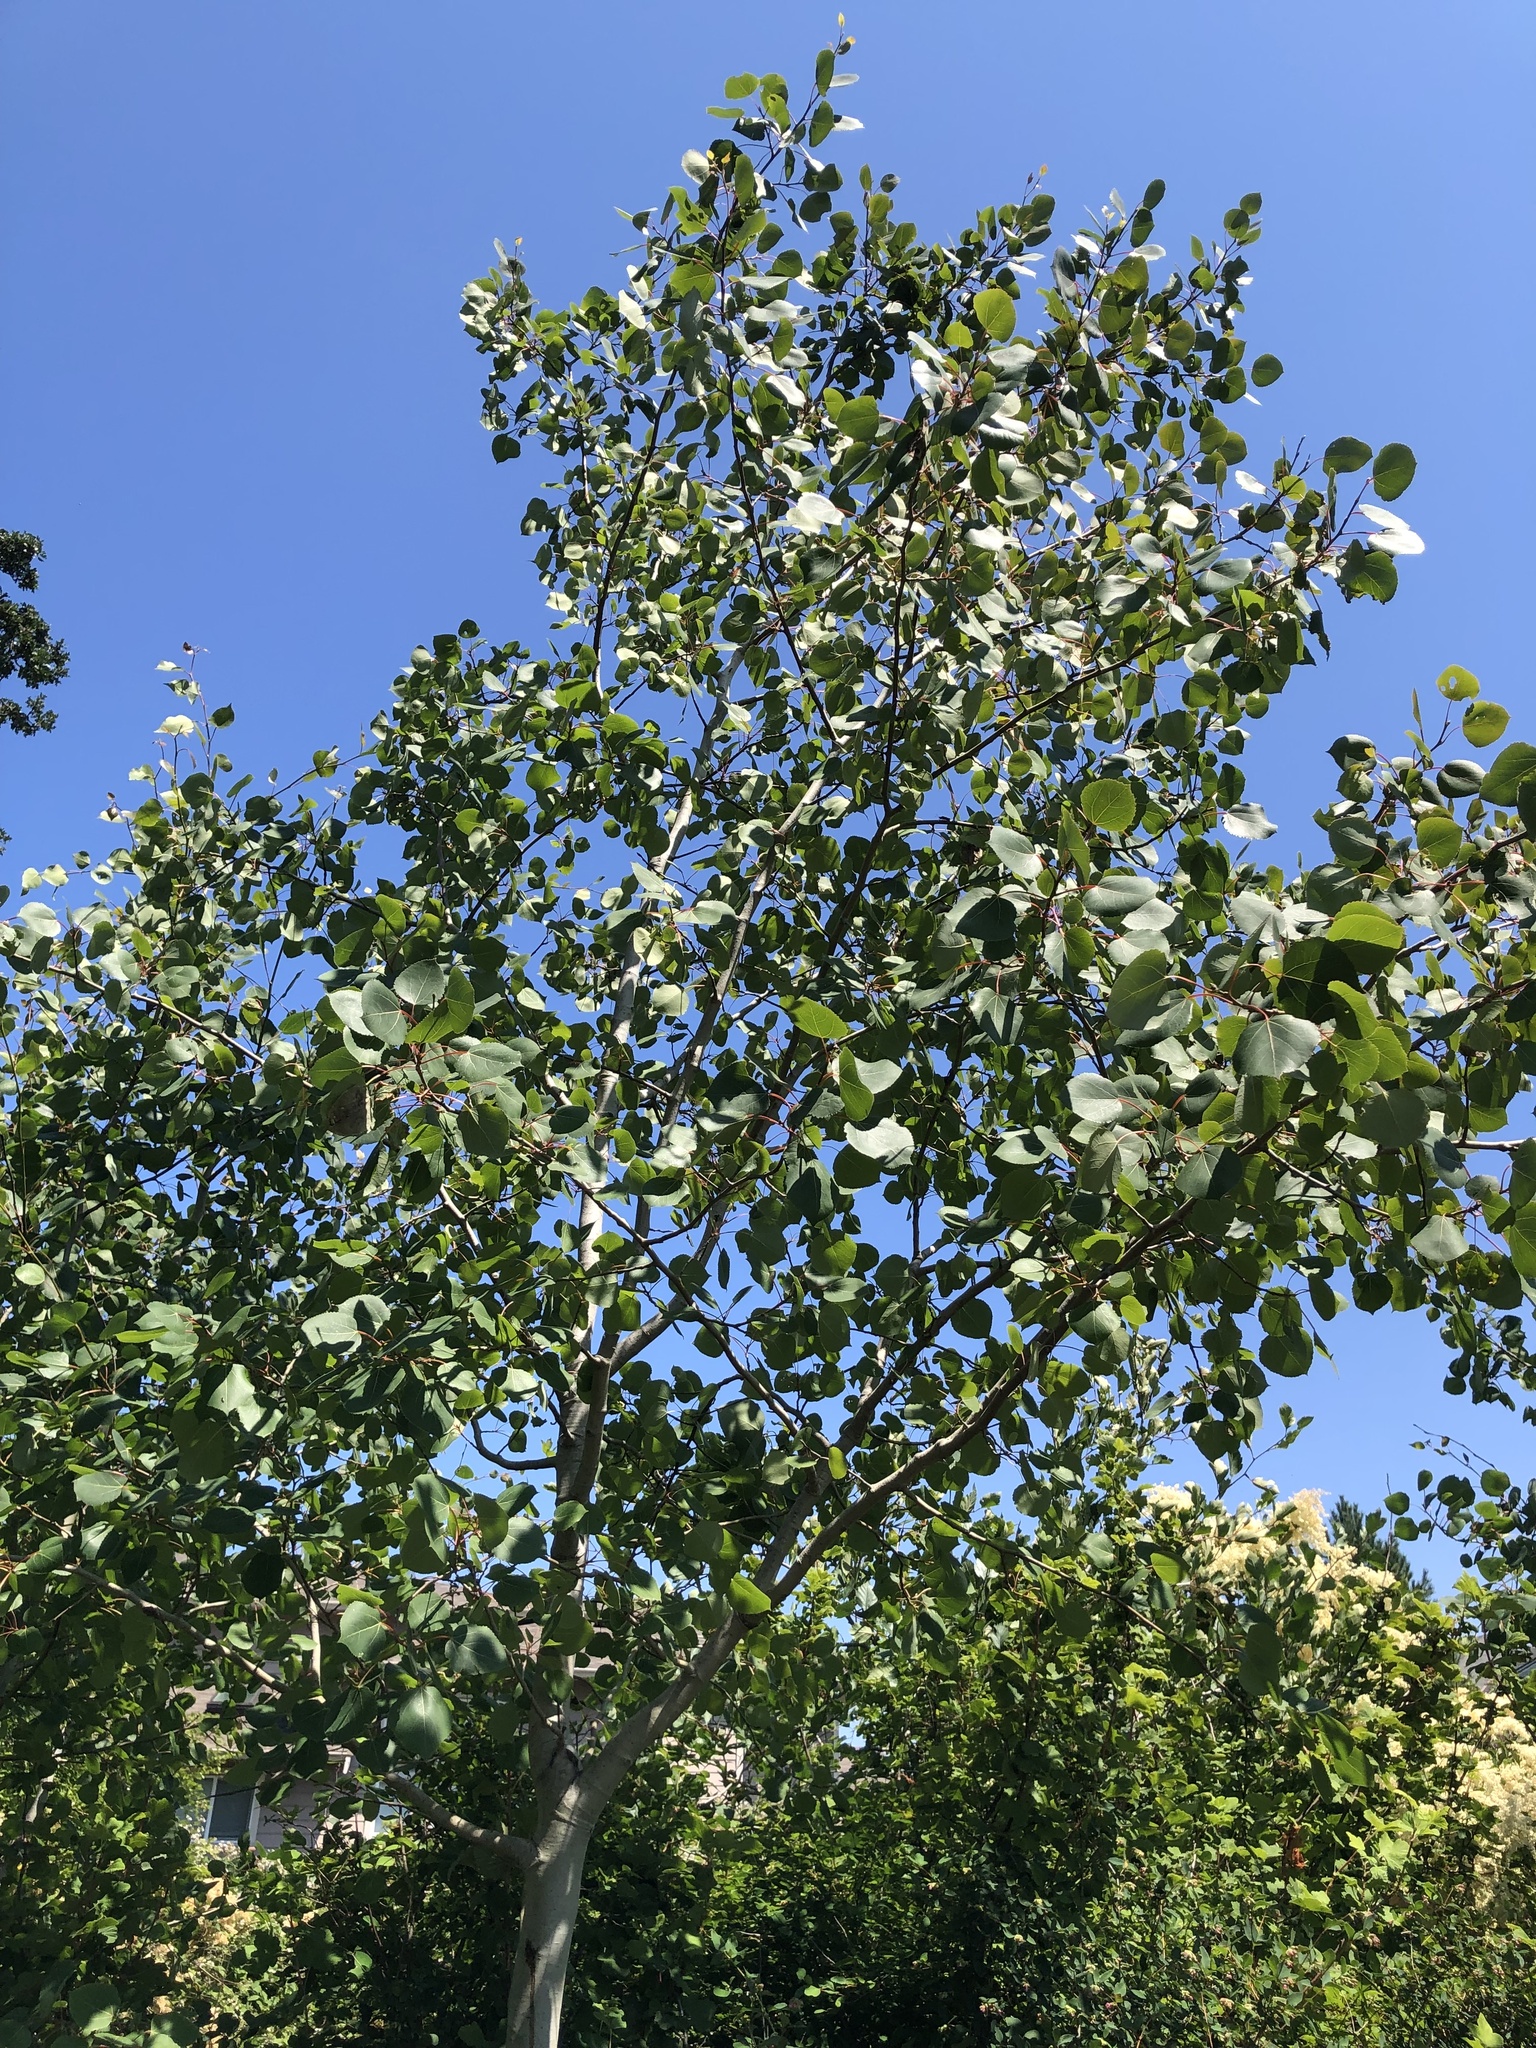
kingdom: Plantae
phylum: Tracheophyta
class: Magnoliopsida
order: Malpighiales
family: Salicaceae
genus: Populus
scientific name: Populus tremuloides
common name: Quaking aspen
